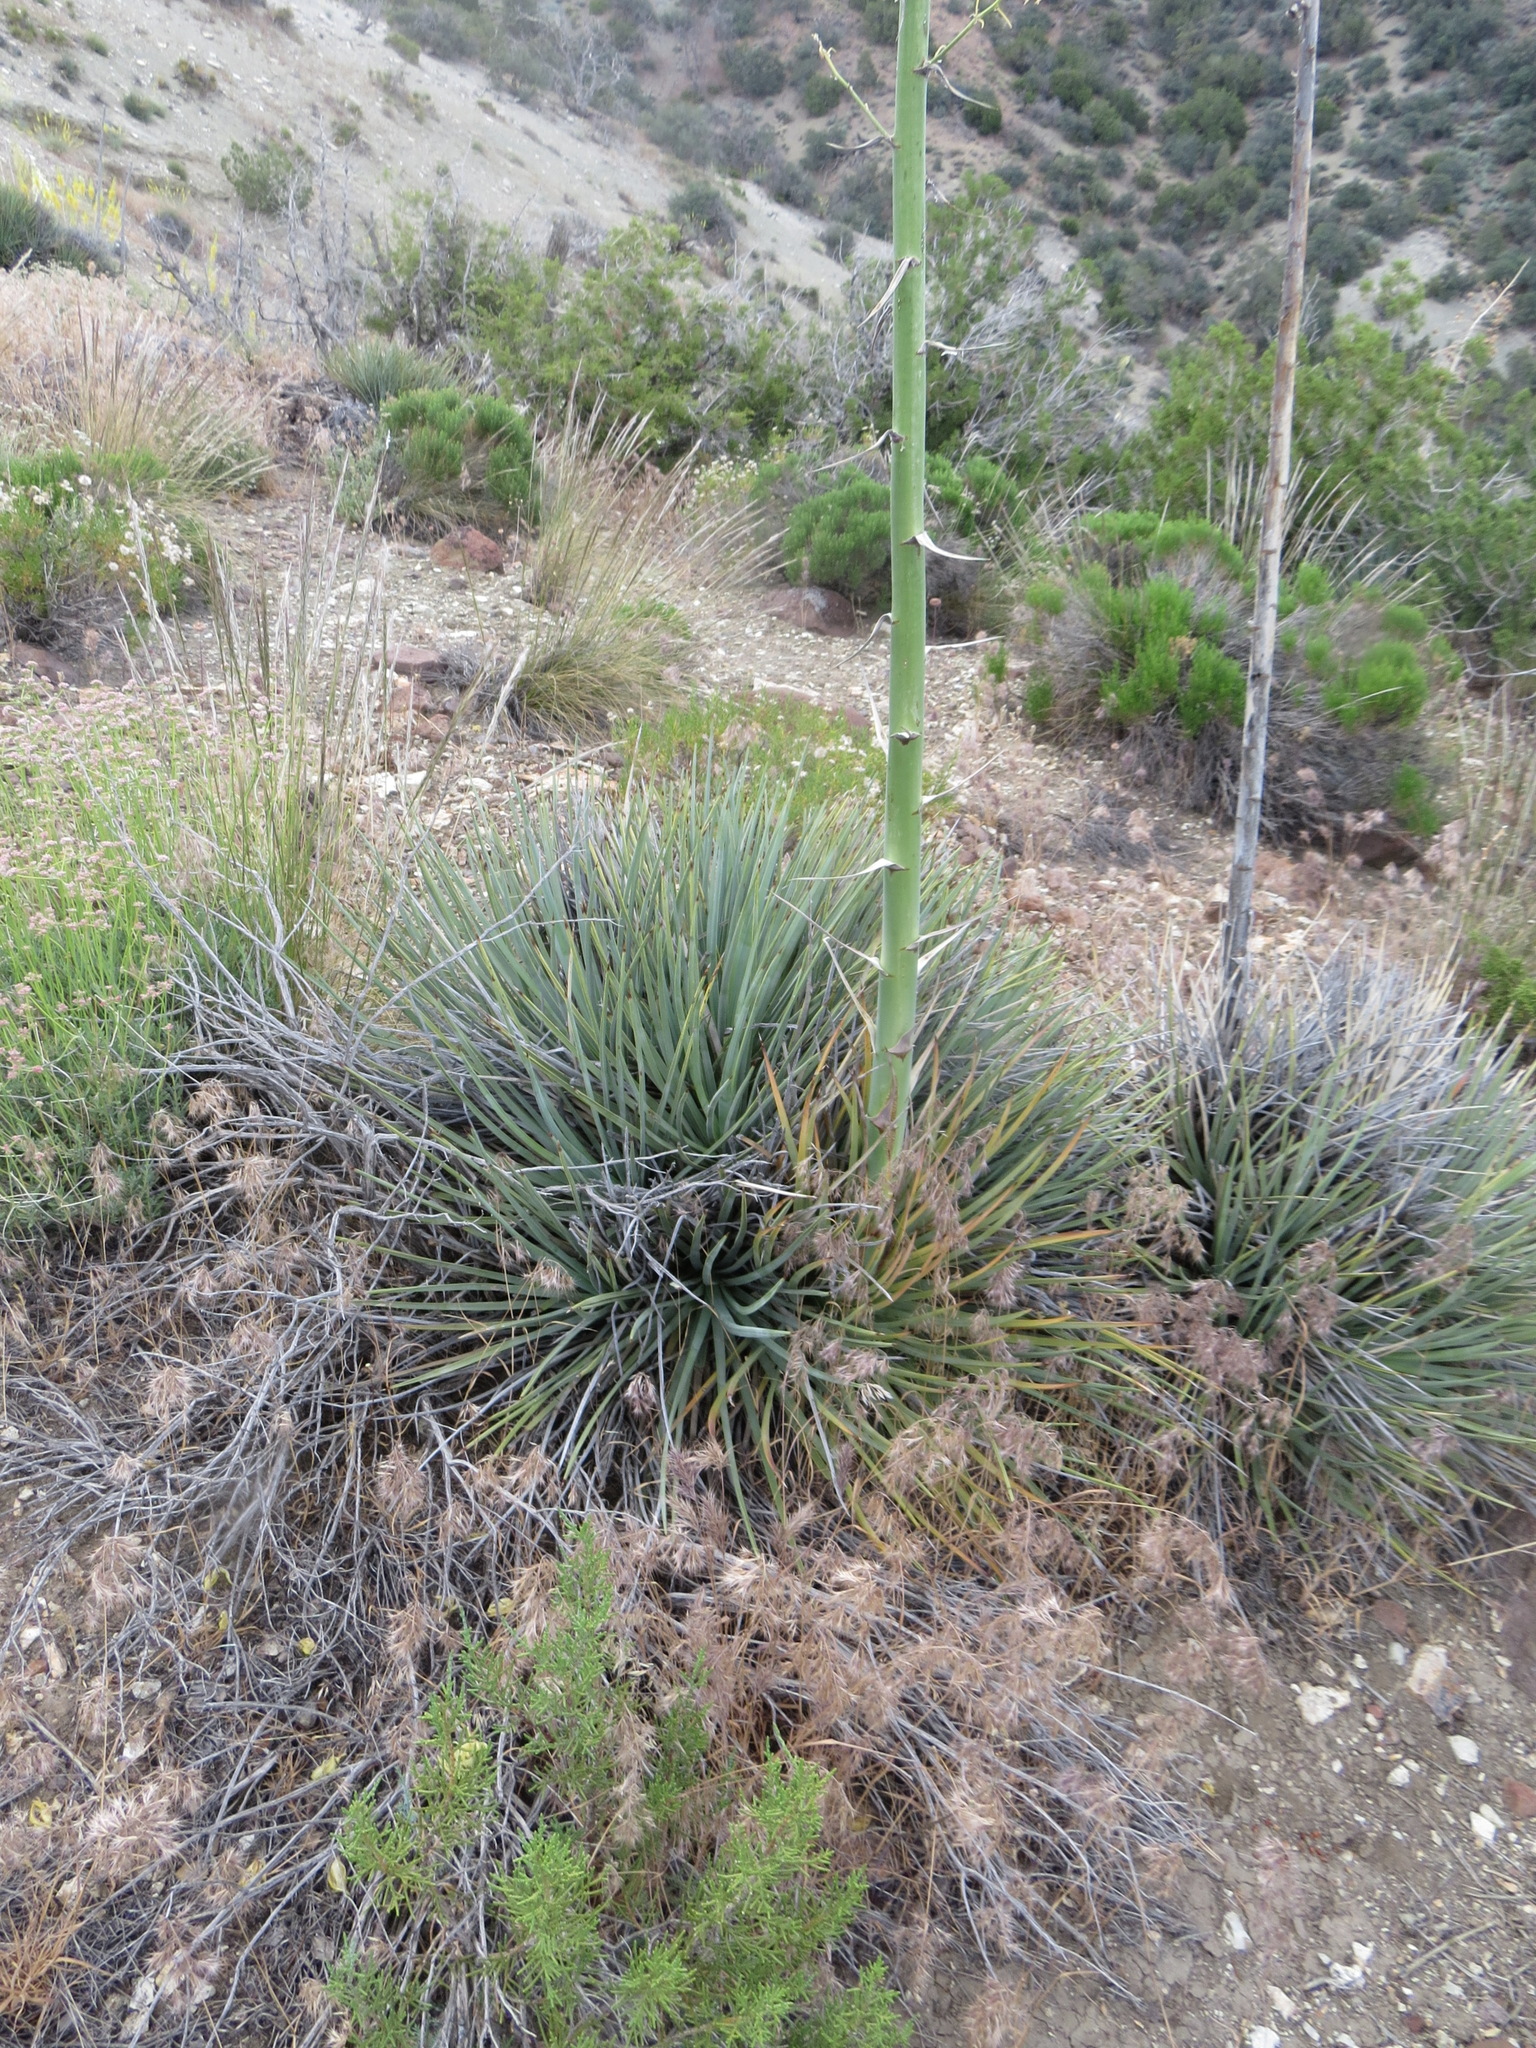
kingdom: Plantae
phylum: Tracheophyta
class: Liliopsida
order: Asparagales
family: Asparagaceae
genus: Hesperoyucca
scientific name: Hesperoyucca whipplei
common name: Our lord's-candle
